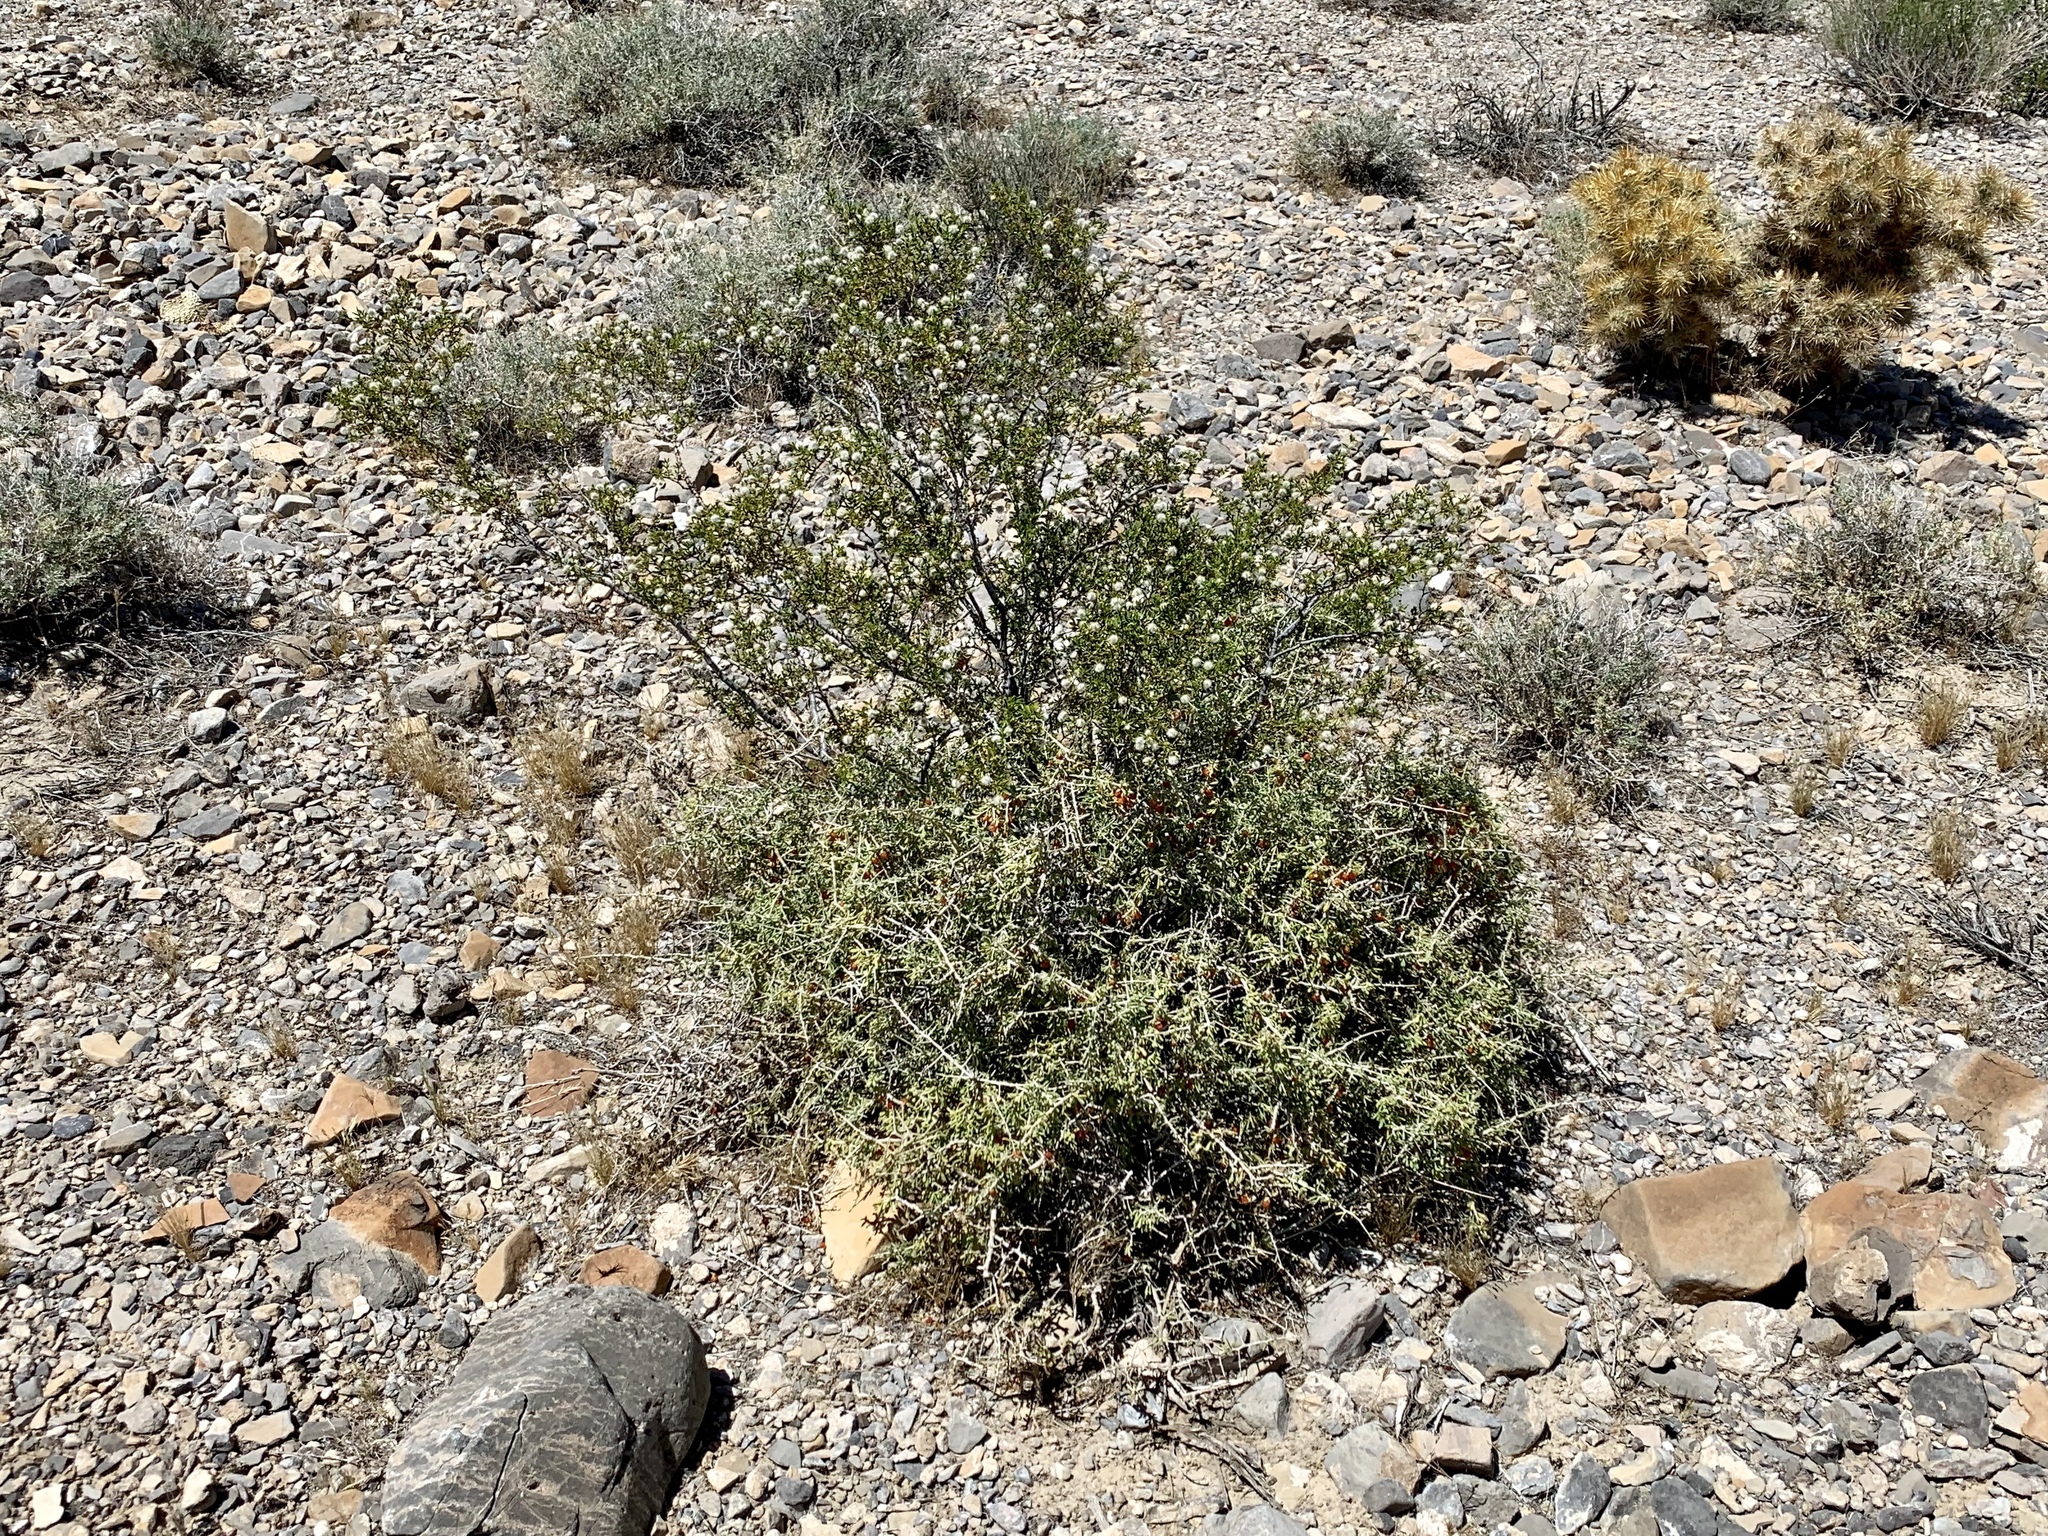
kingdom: Plantae
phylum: Tracheophyta
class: Magnoliopsida
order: Solanales
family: Solanaceae
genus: Lycium
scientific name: Lycium andersonii
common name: Water-jacket
